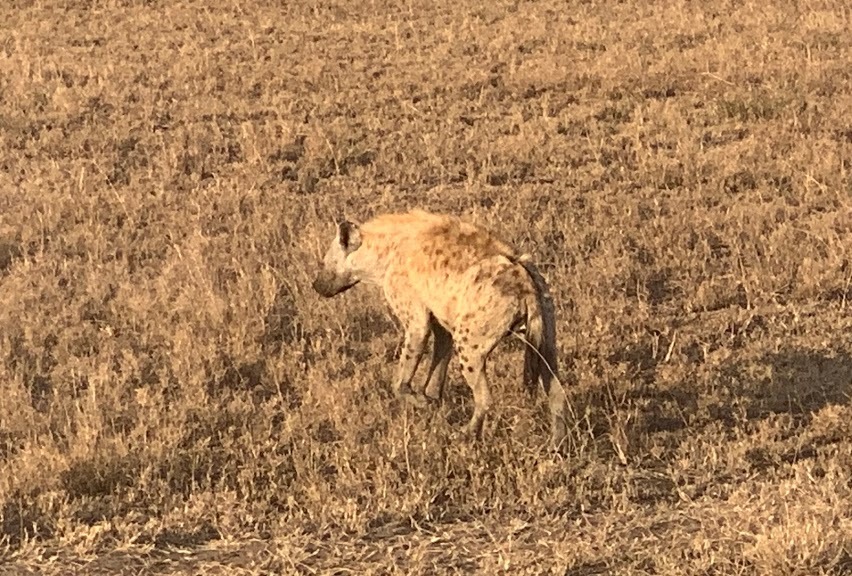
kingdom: Animalia
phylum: Chordata
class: Mammalia
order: Carnivora
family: Hyaenidae
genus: Crocuta
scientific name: Crocuta crocuta
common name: Spotted hyaena
